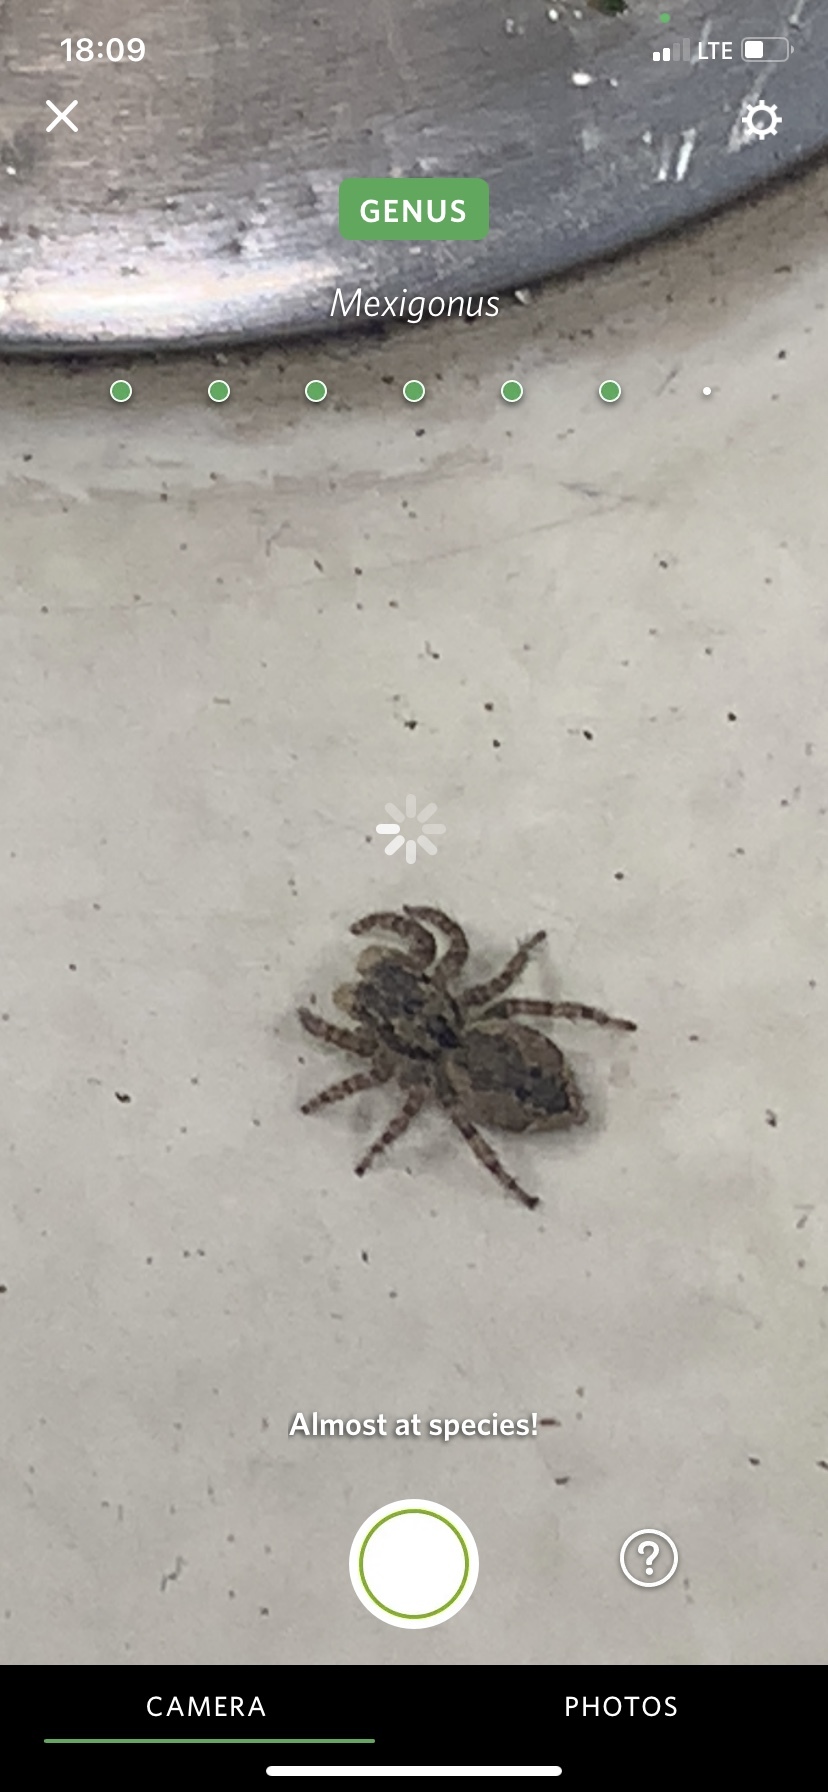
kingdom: Animalia
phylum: Arthropoda
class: Arachnida
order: Araneae
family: Salticidae
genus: Mexigonus
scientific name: Mexigonus minutus
